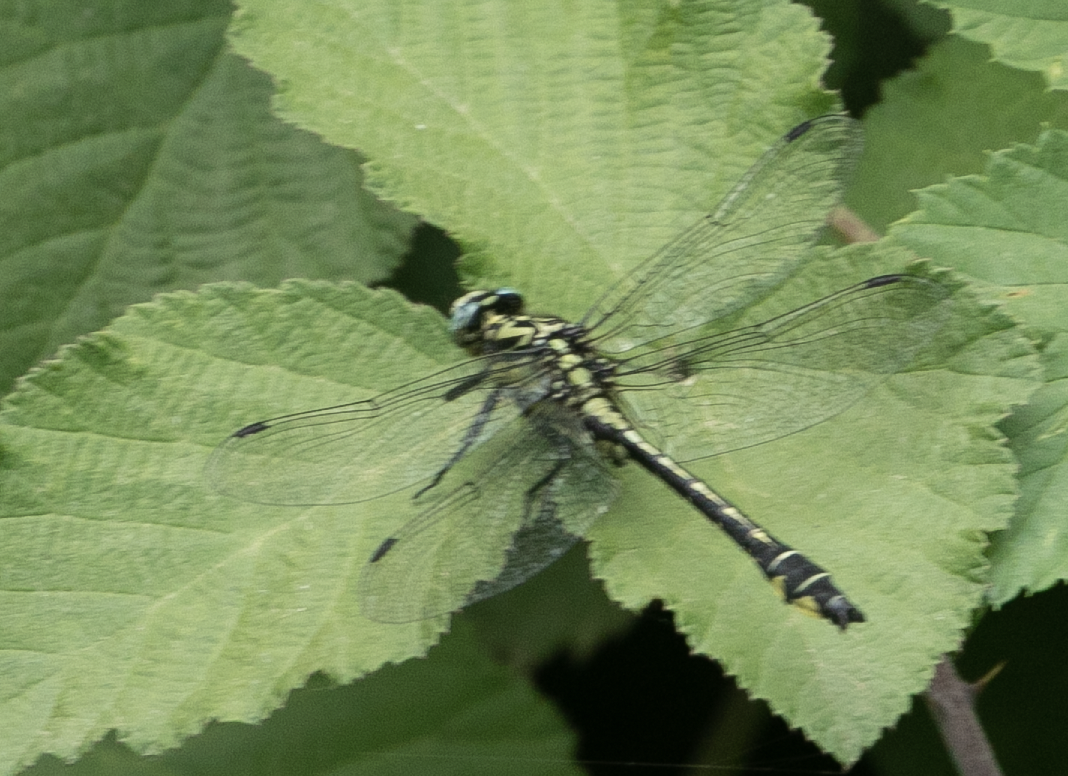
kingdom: Animalia
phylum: Arthropoda
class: Insecta
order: Odonata
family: Gomphidae
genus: Gomphus
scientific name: Gomphus vulgatissimus
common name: Club-tailed dragonfly
